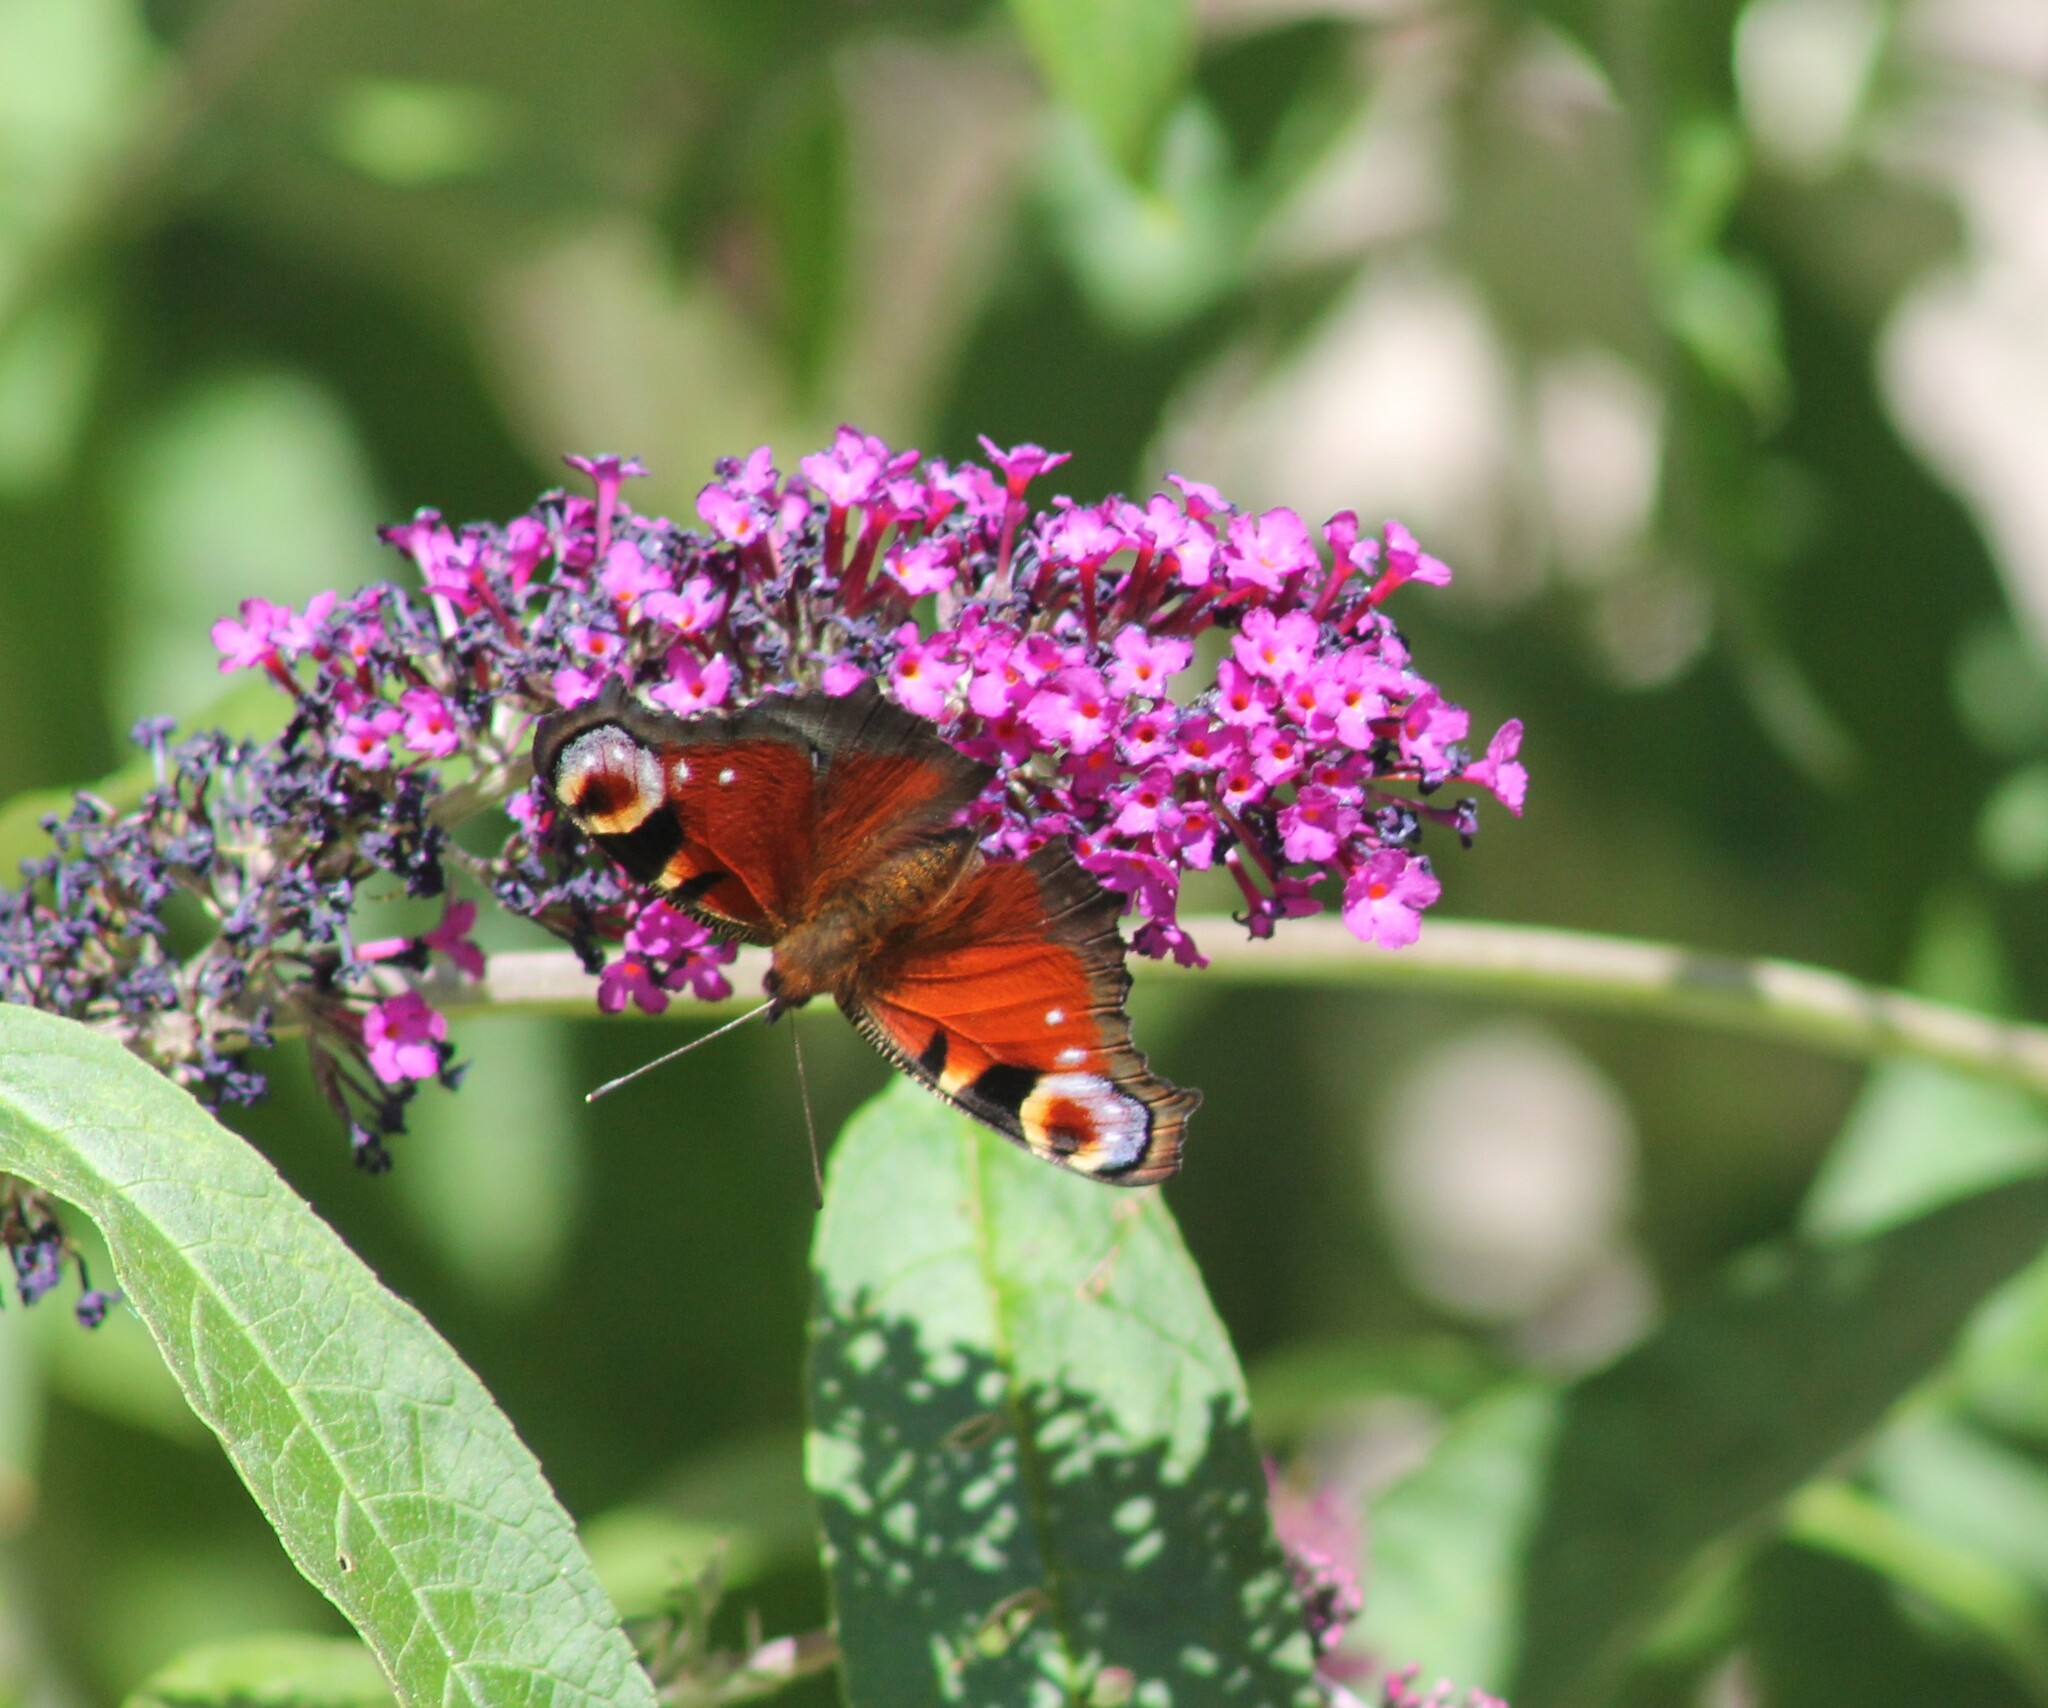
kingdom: Animalia
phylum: Arthropoda
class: Insecta
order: Lepidoptera
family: Nymphalidae
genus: Aglais
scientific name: Aglais io
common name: Peacock
